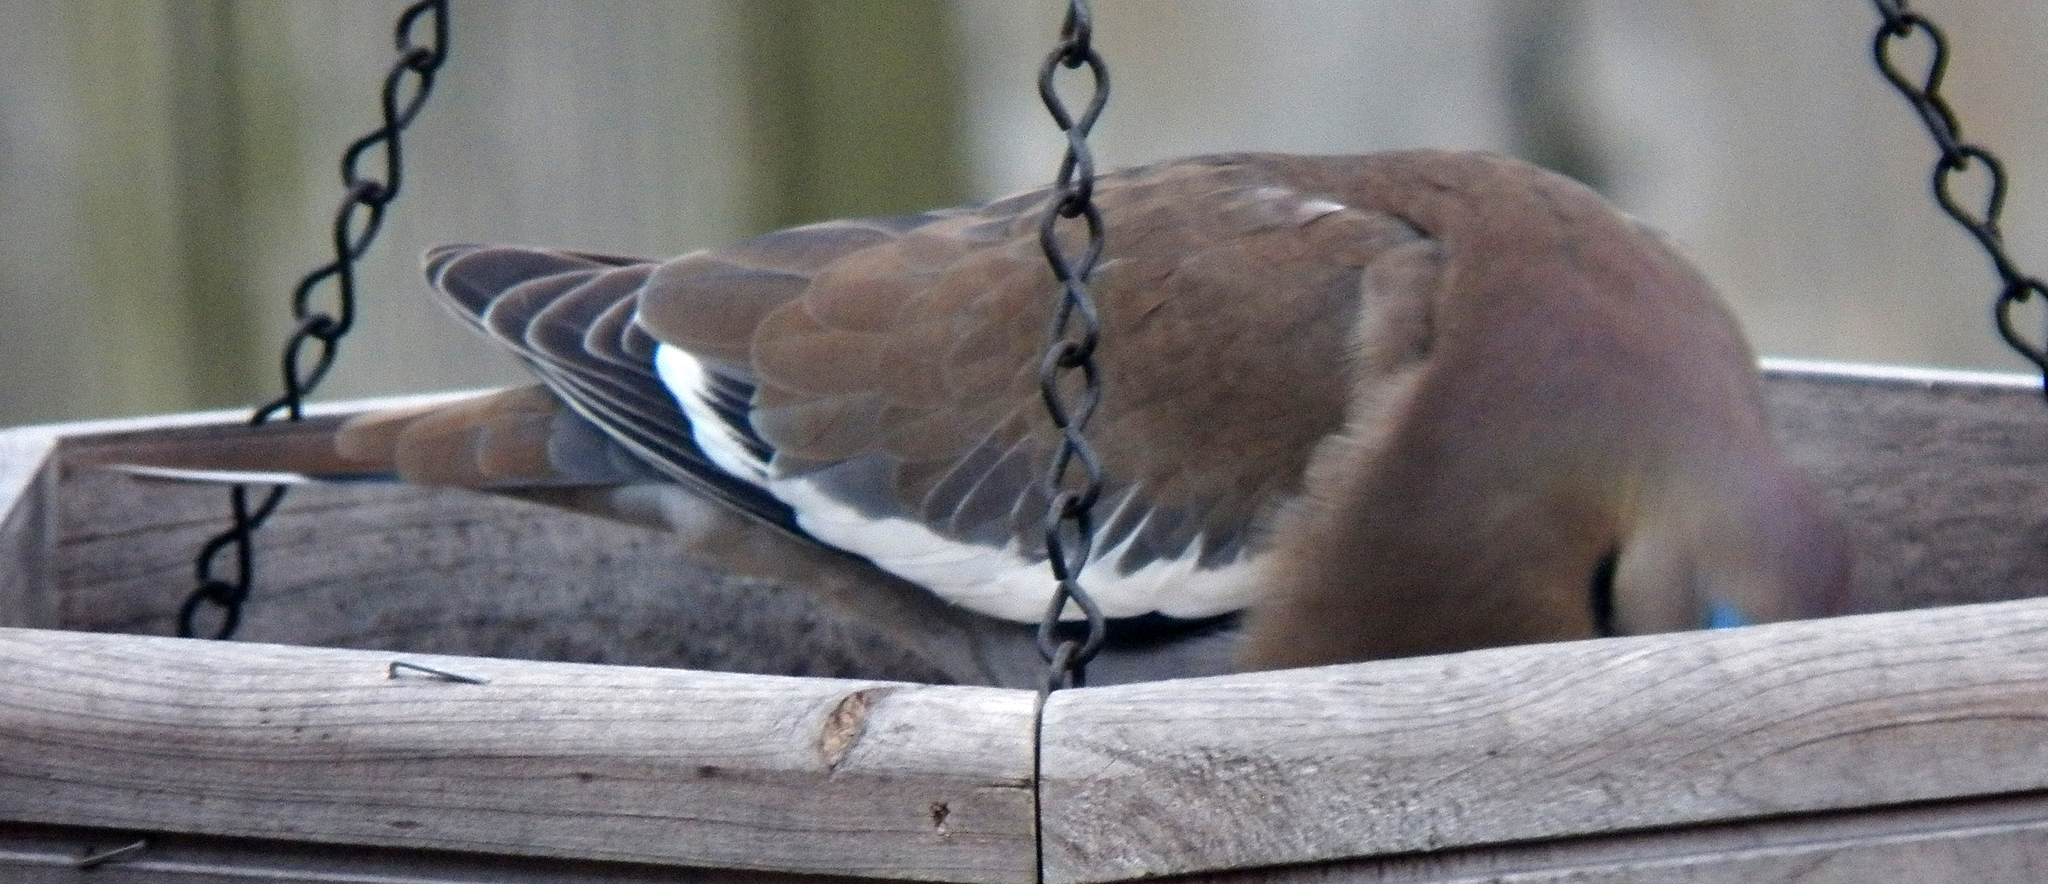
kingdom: Animalia
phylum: Chordata
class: Aves
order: Columbiformes
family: Columbidae
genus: Zenaida
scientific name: Zenaida asiatica
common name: White-winged dove
